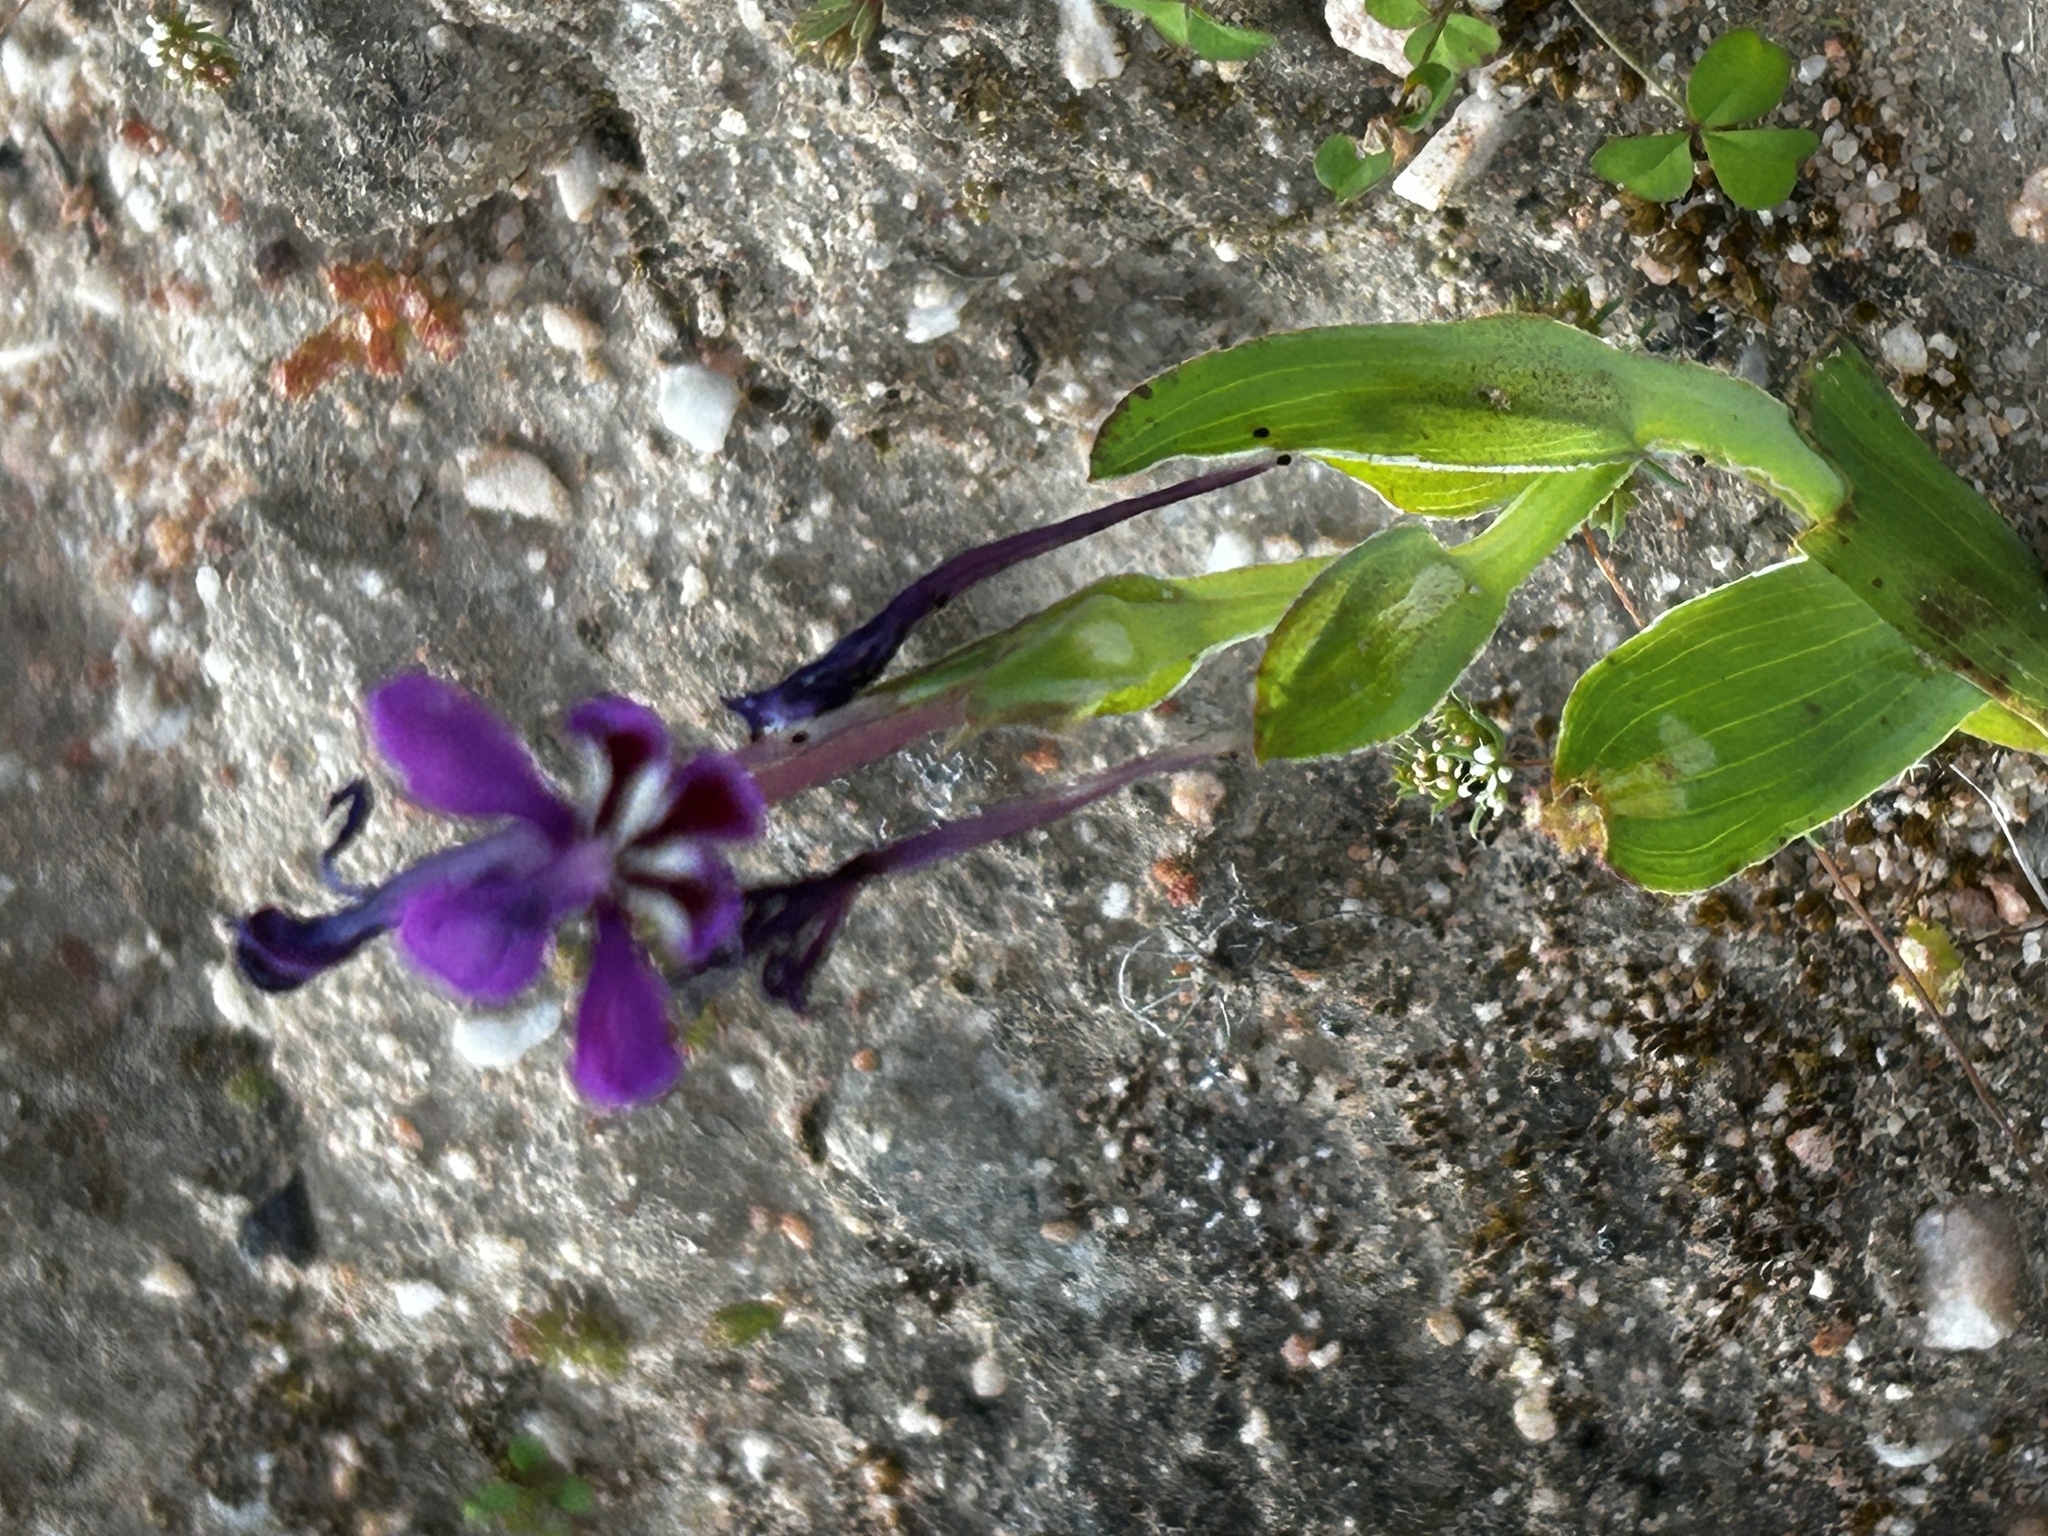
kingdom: Plantae
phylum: Tracheophyta
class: Liliopsida
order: Asparagales
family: Iridaceae
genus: Lapeirousia
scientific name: Lapeirousia jacquinii
